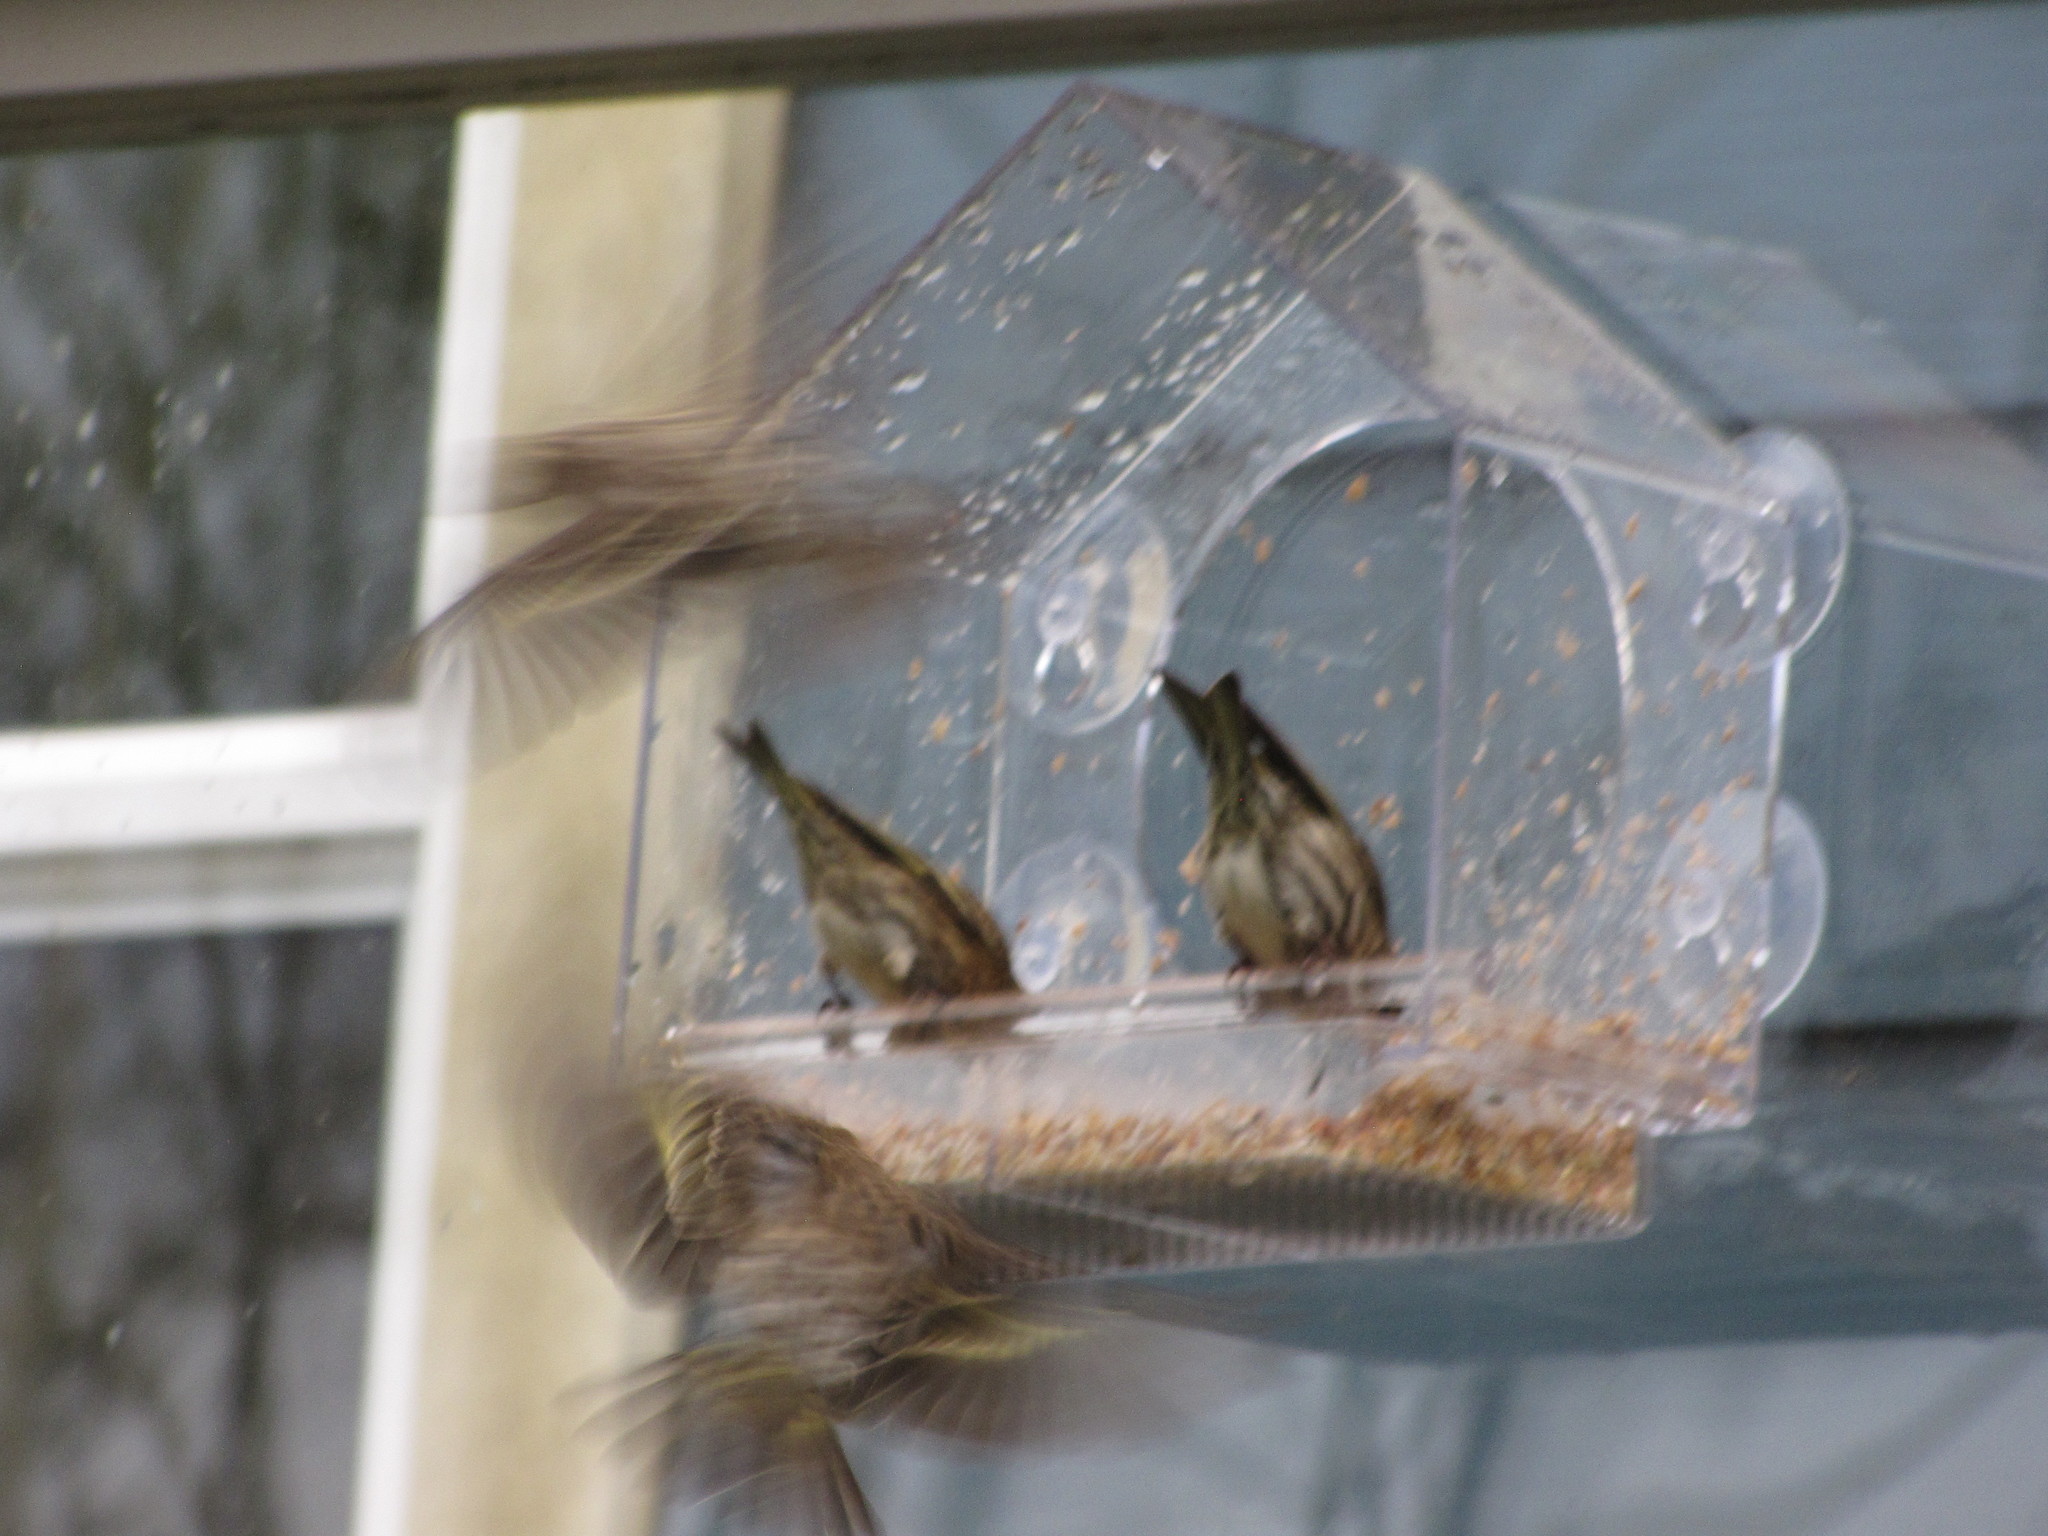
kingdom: Animalia
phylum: Chordata
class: Aves
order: Passeriformes
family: Fringillidae
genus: Spinus
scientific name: Spinus pinus
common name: Pine siskin
